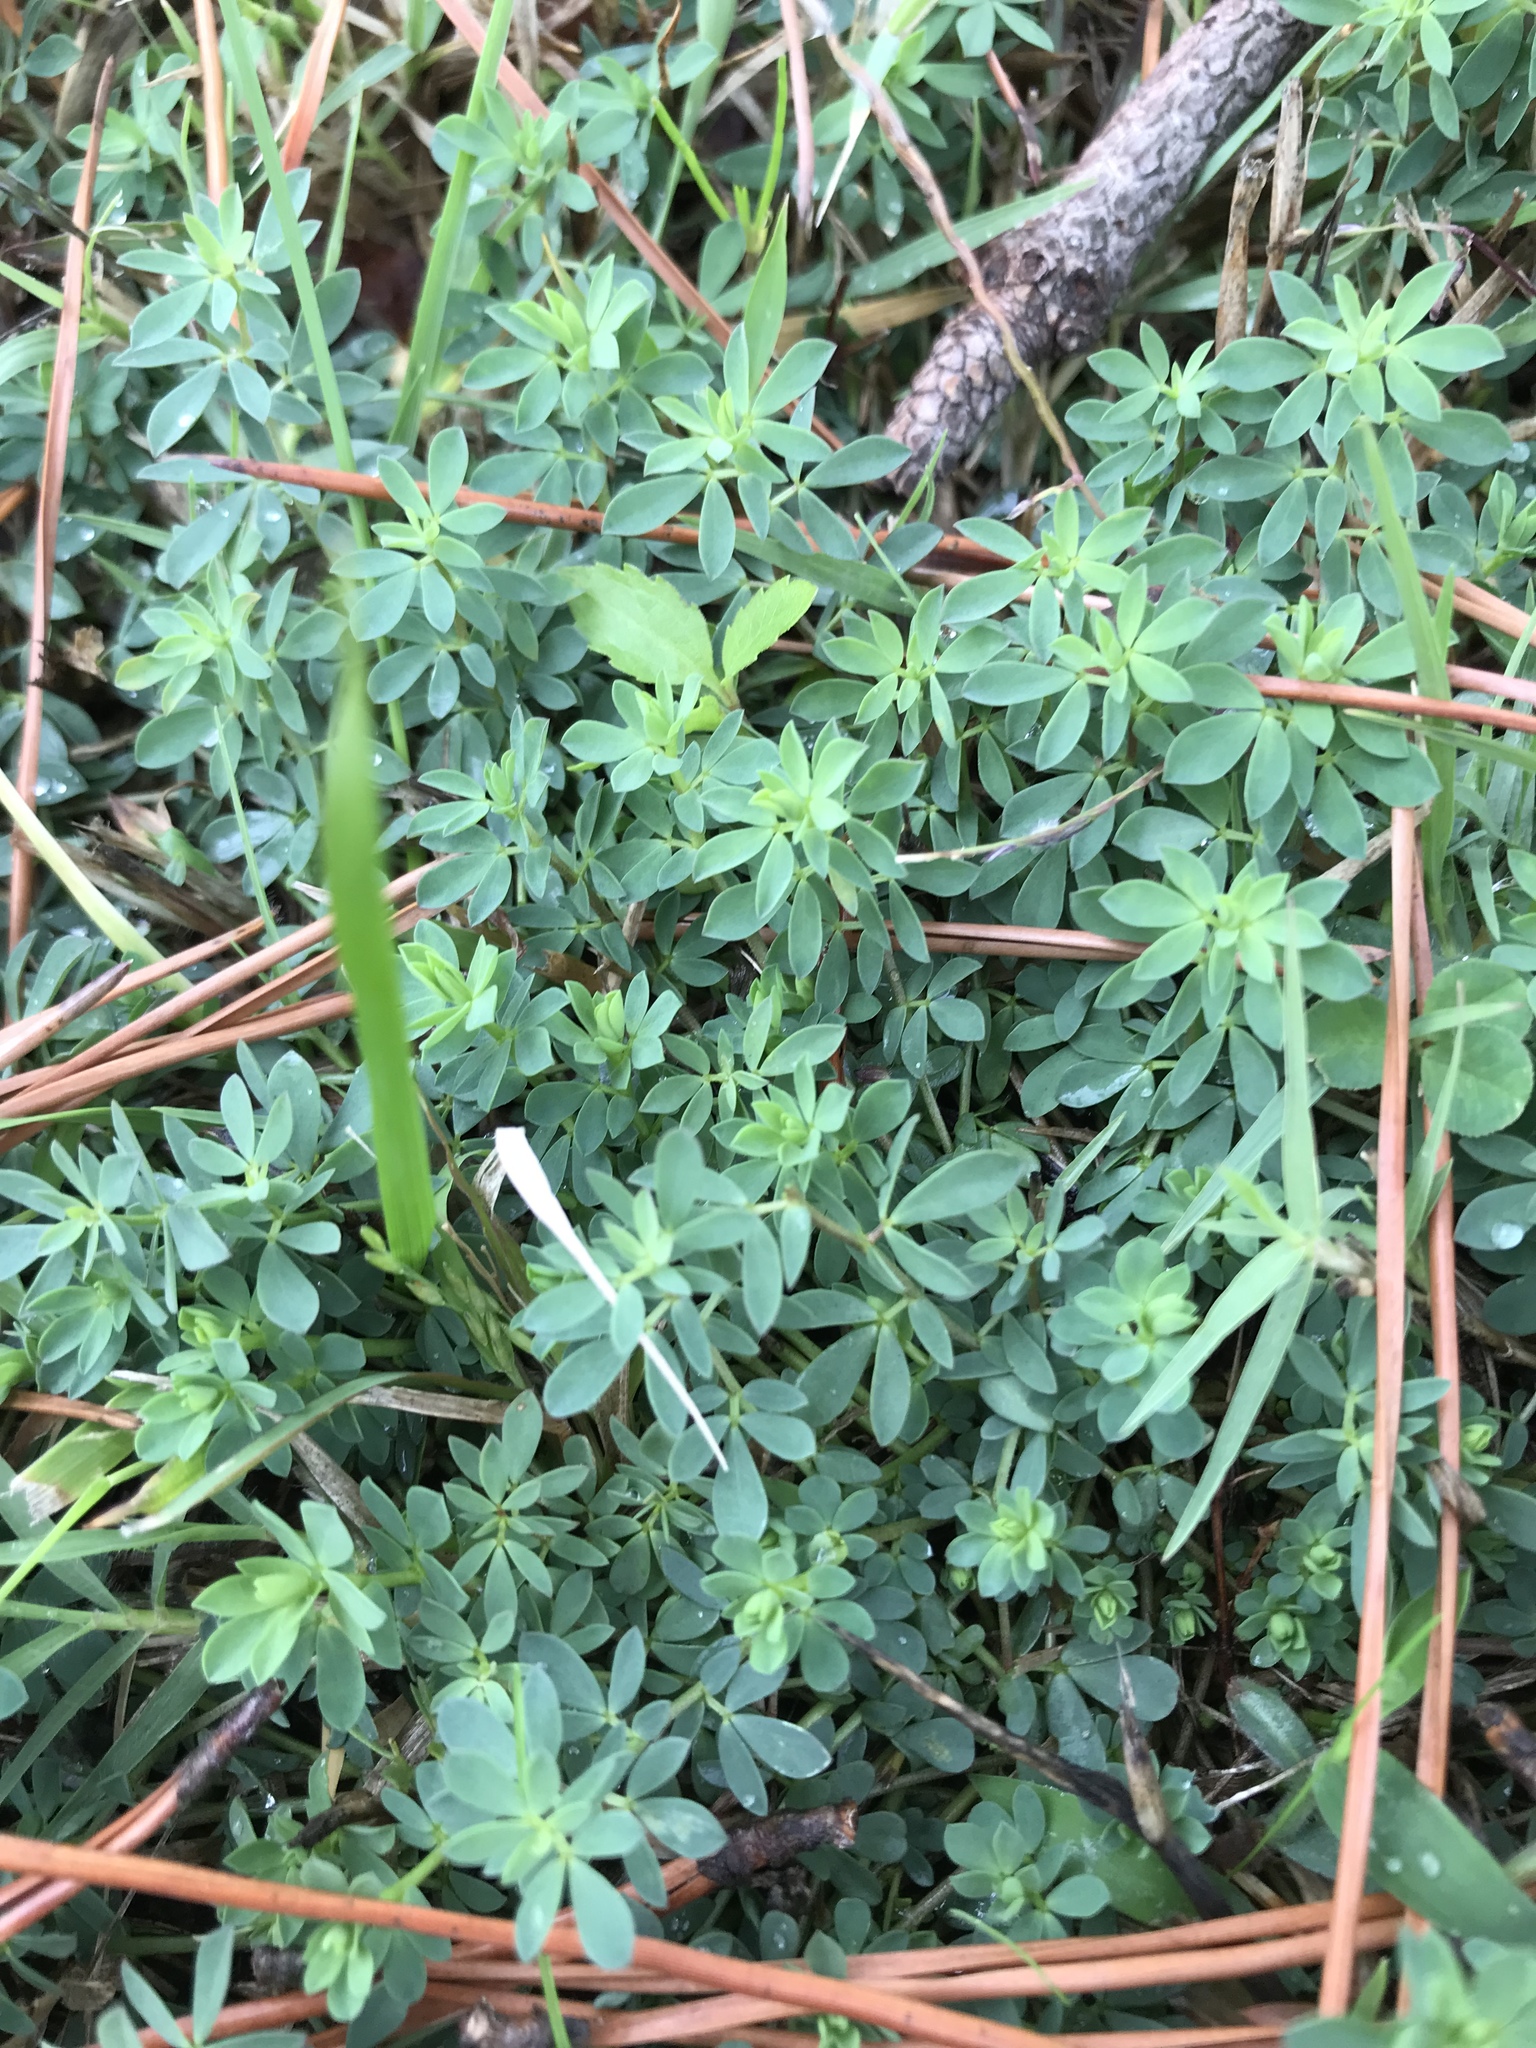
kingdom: Plantae
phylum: Tracheophyta
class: Magnoliopsida
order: Fabales
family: Fabaceae
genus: Lotus
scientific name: Lotus corniculatus
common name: Common bird's-foot-trefoil
